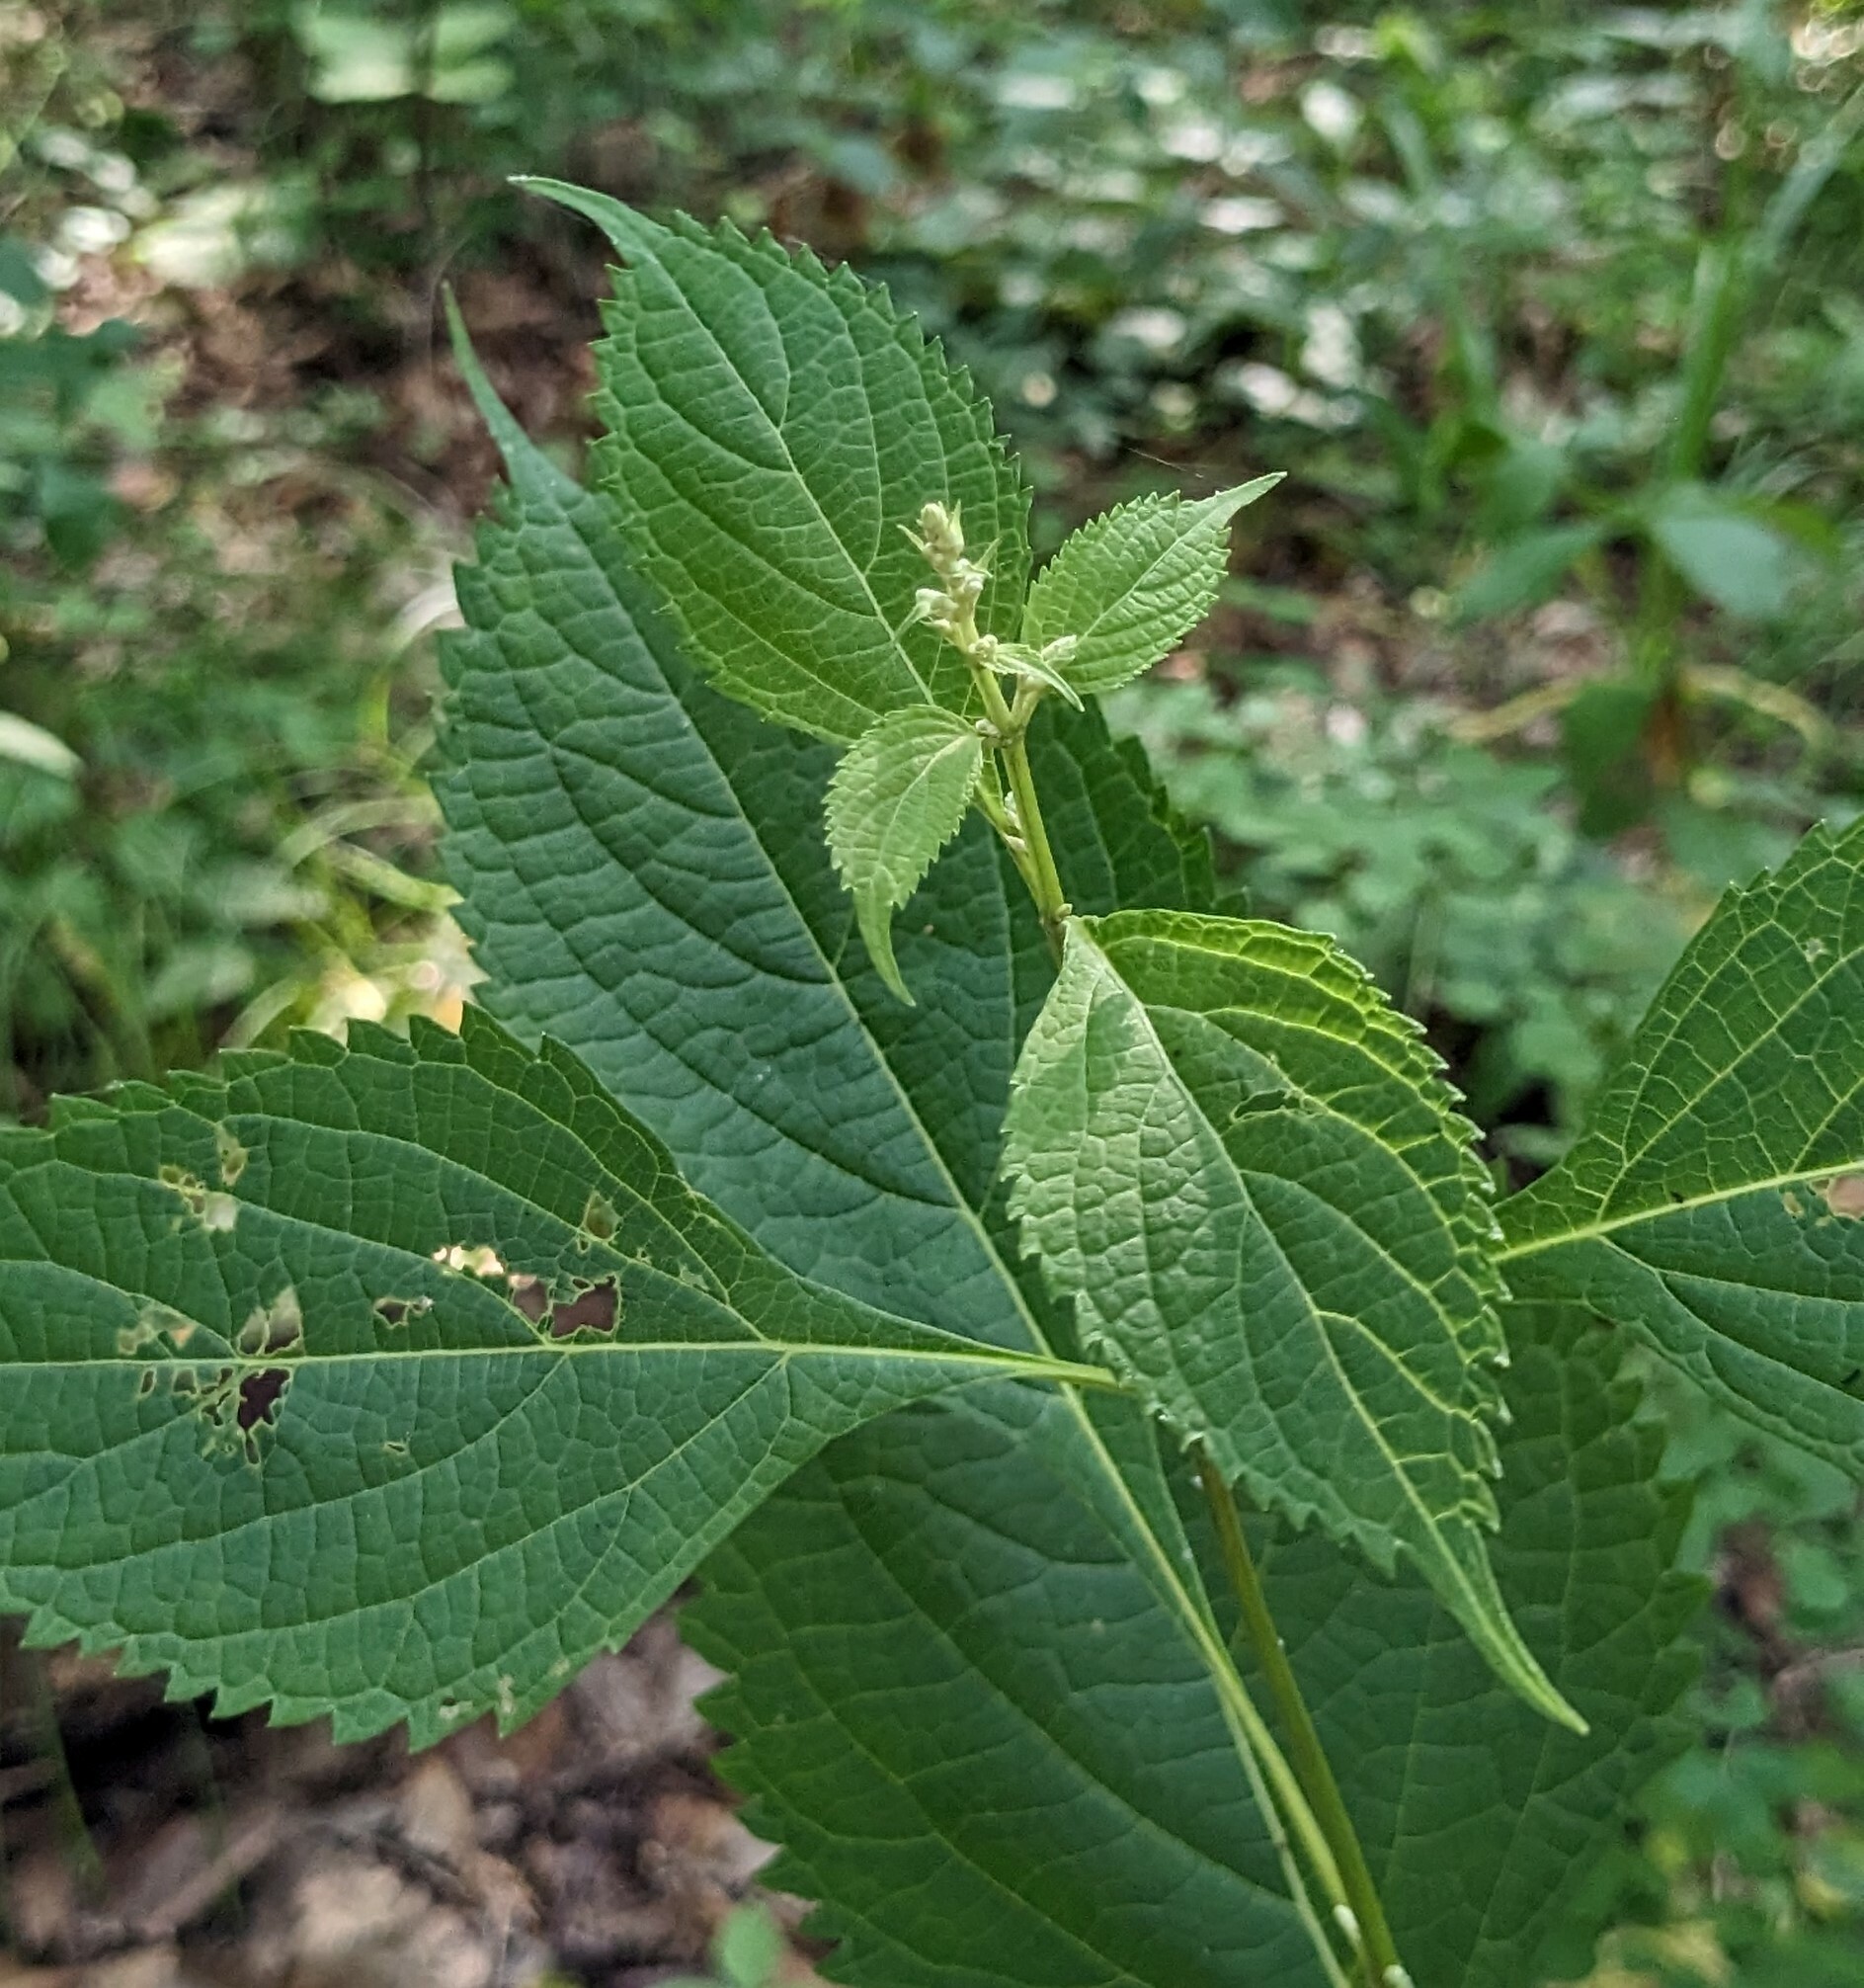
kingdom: Plantae
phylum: Tracheophyta
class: Magnoliopsida
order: Lamiales
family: Lamiaceae
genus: Isodon
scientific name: Isodon japonicus
